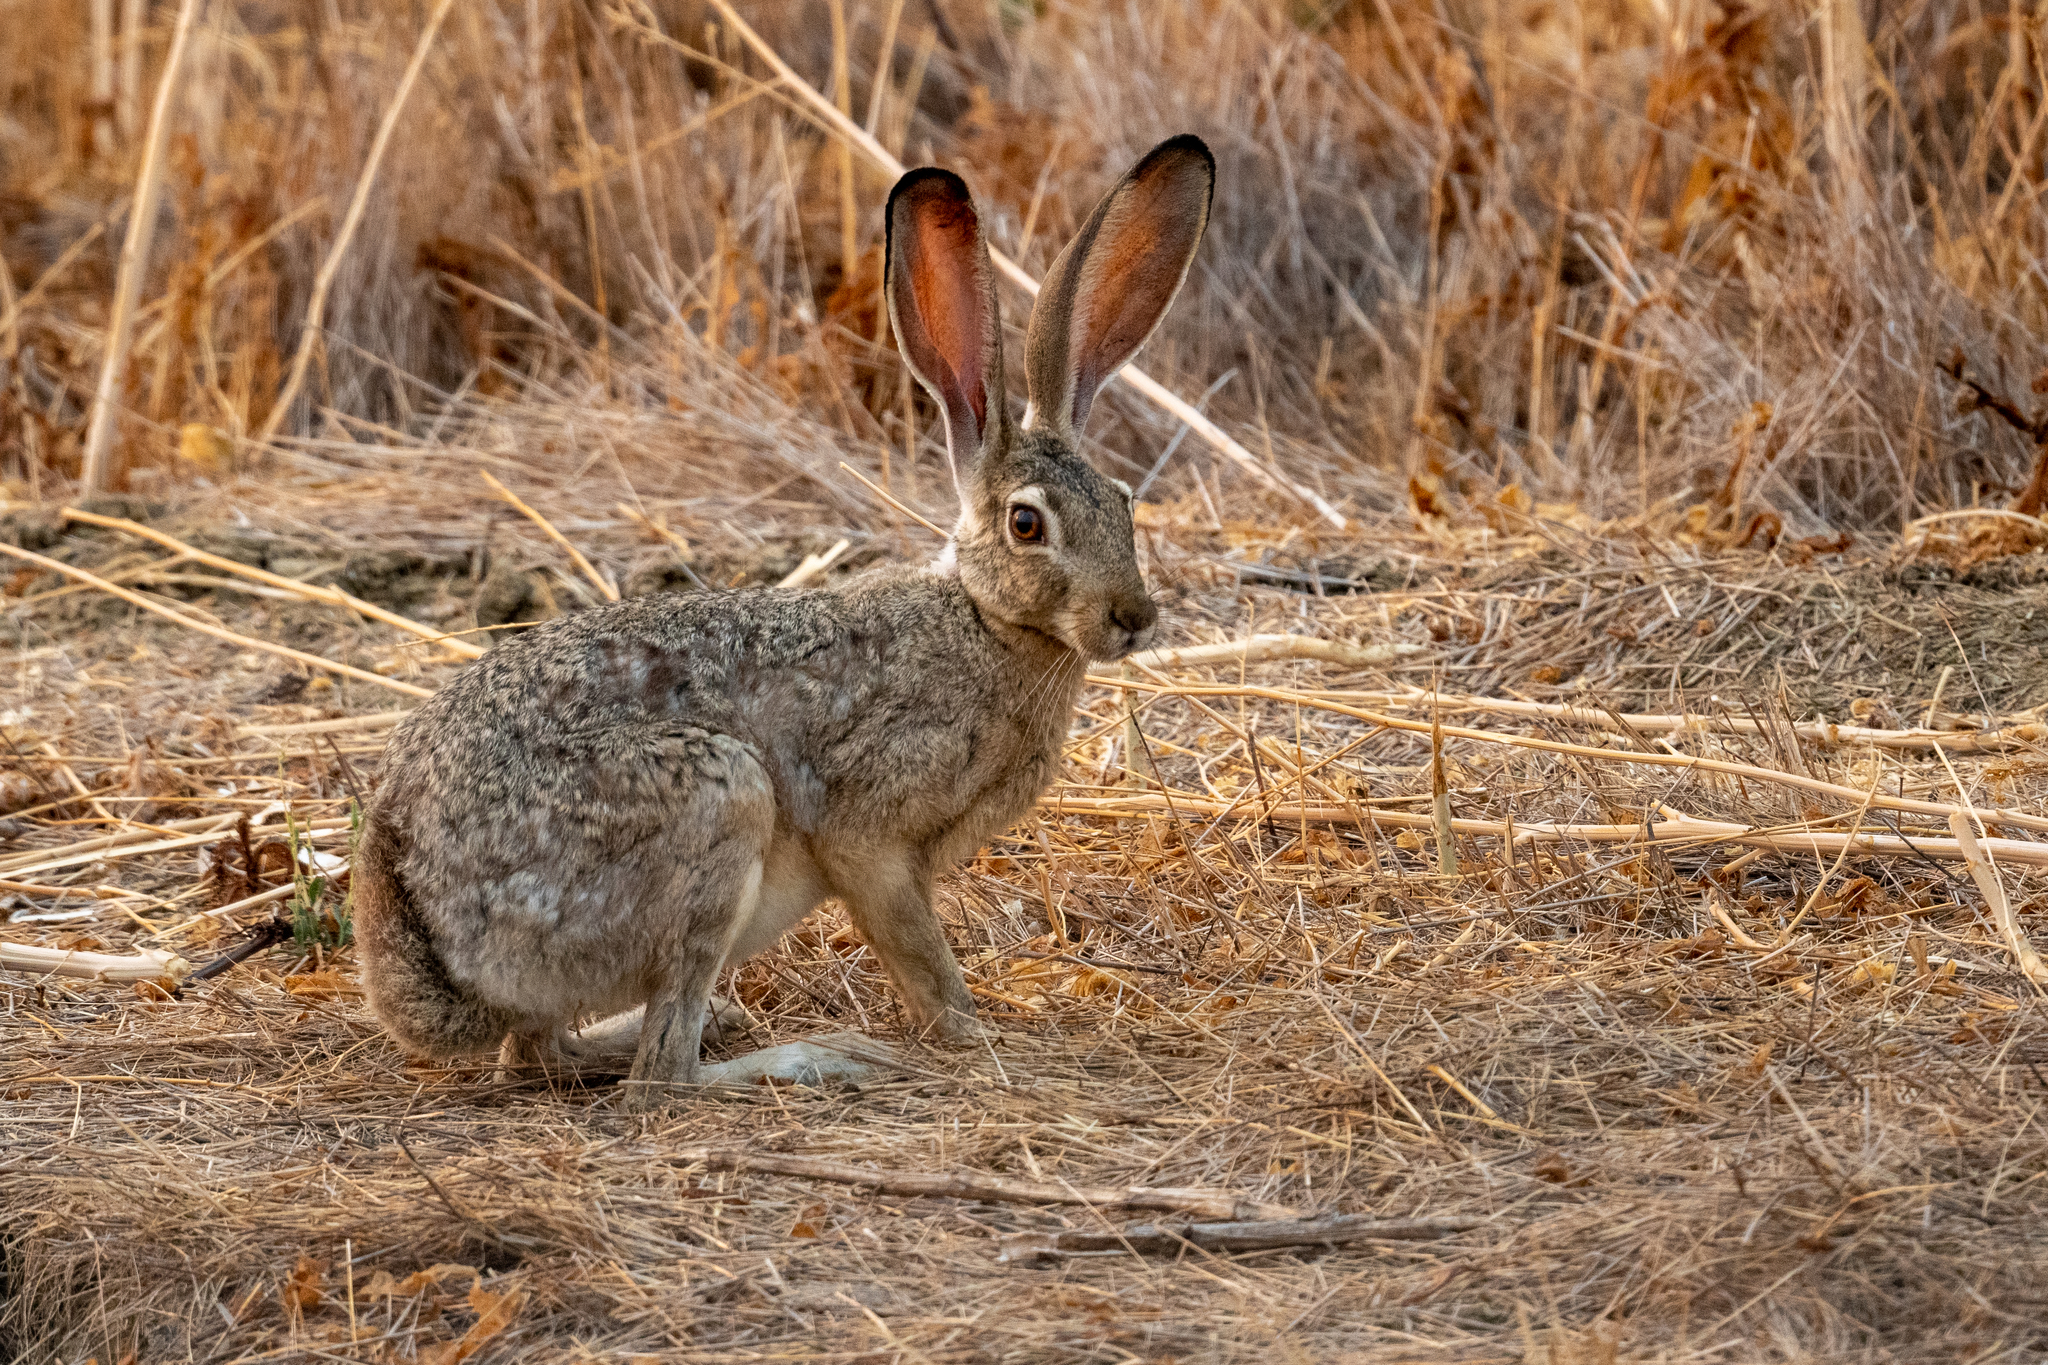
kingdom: Animalia
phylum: Chordata
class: Mammalia
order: Lagomorpha
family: Leporidae
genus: Lepus
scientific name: Lepus californicus
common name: Black-tailed jackrabbit
